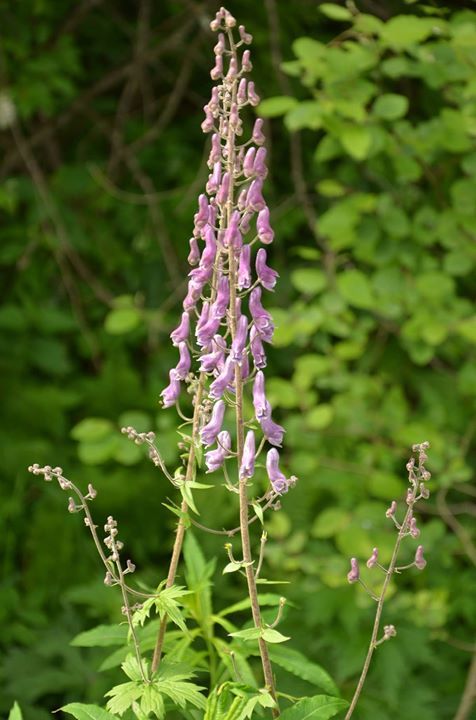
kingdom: Plantae
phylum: Tracheophyta
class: Magnoliopsida
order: Ranunculales
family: Ranunculaceae
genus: Aconitum
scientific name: Aconitum septentrionale
